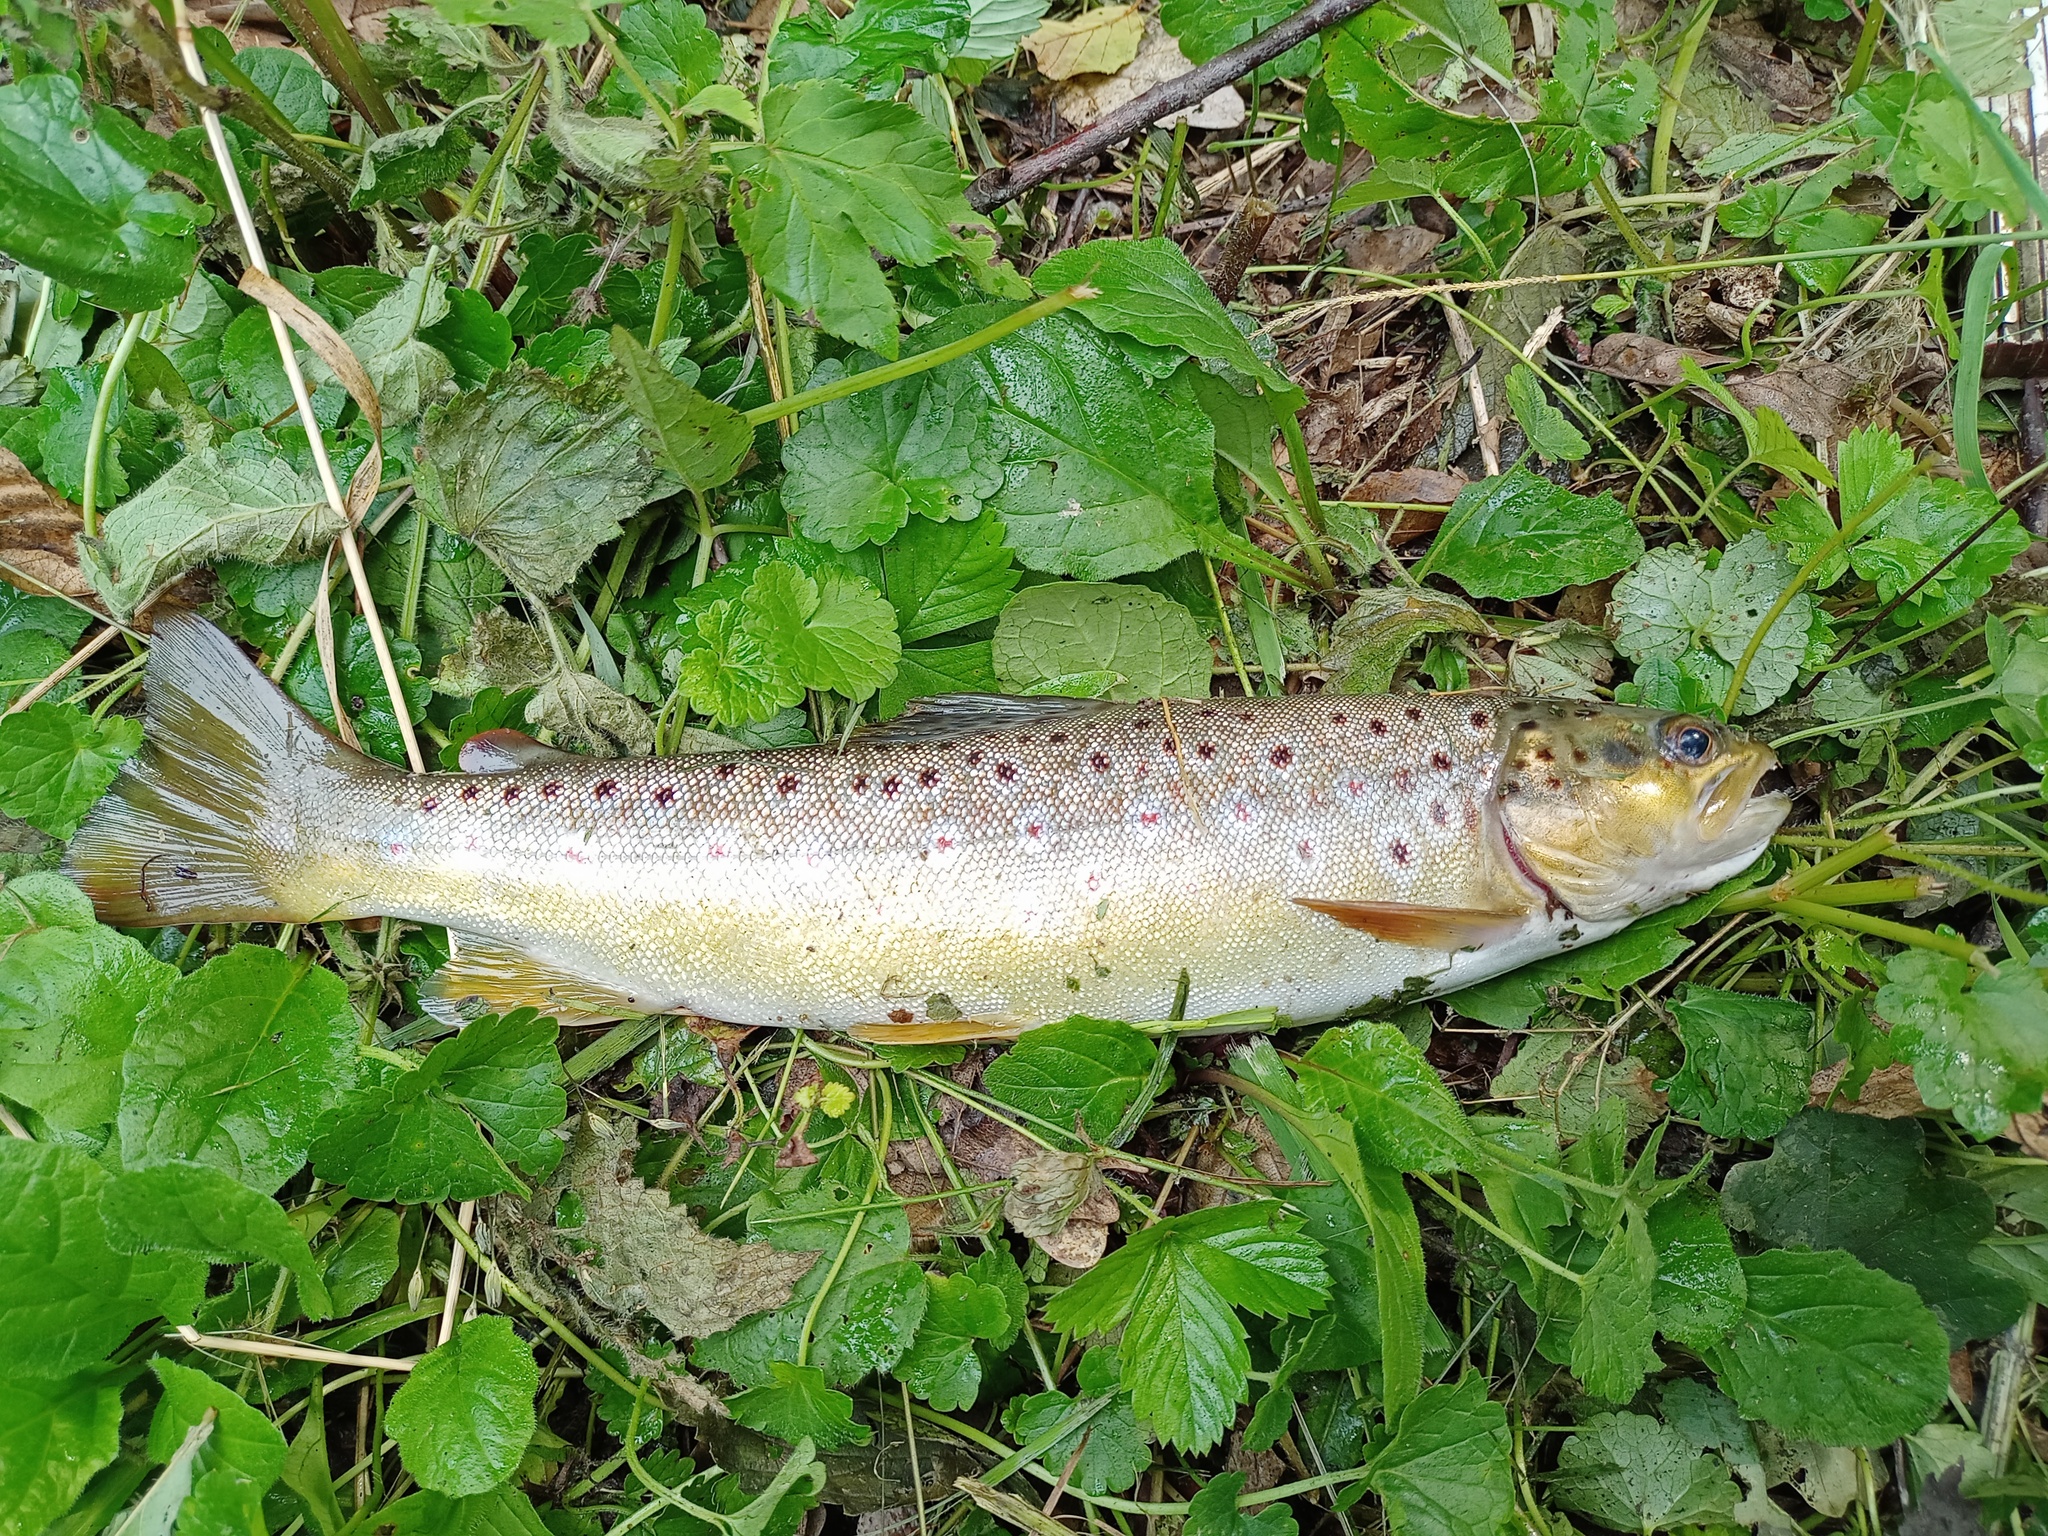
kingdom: Animalia
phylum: Chordata
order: Salmoniformes
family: Salmonidae
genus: Salmo
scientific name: Salmo trutta
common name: Brown trout
